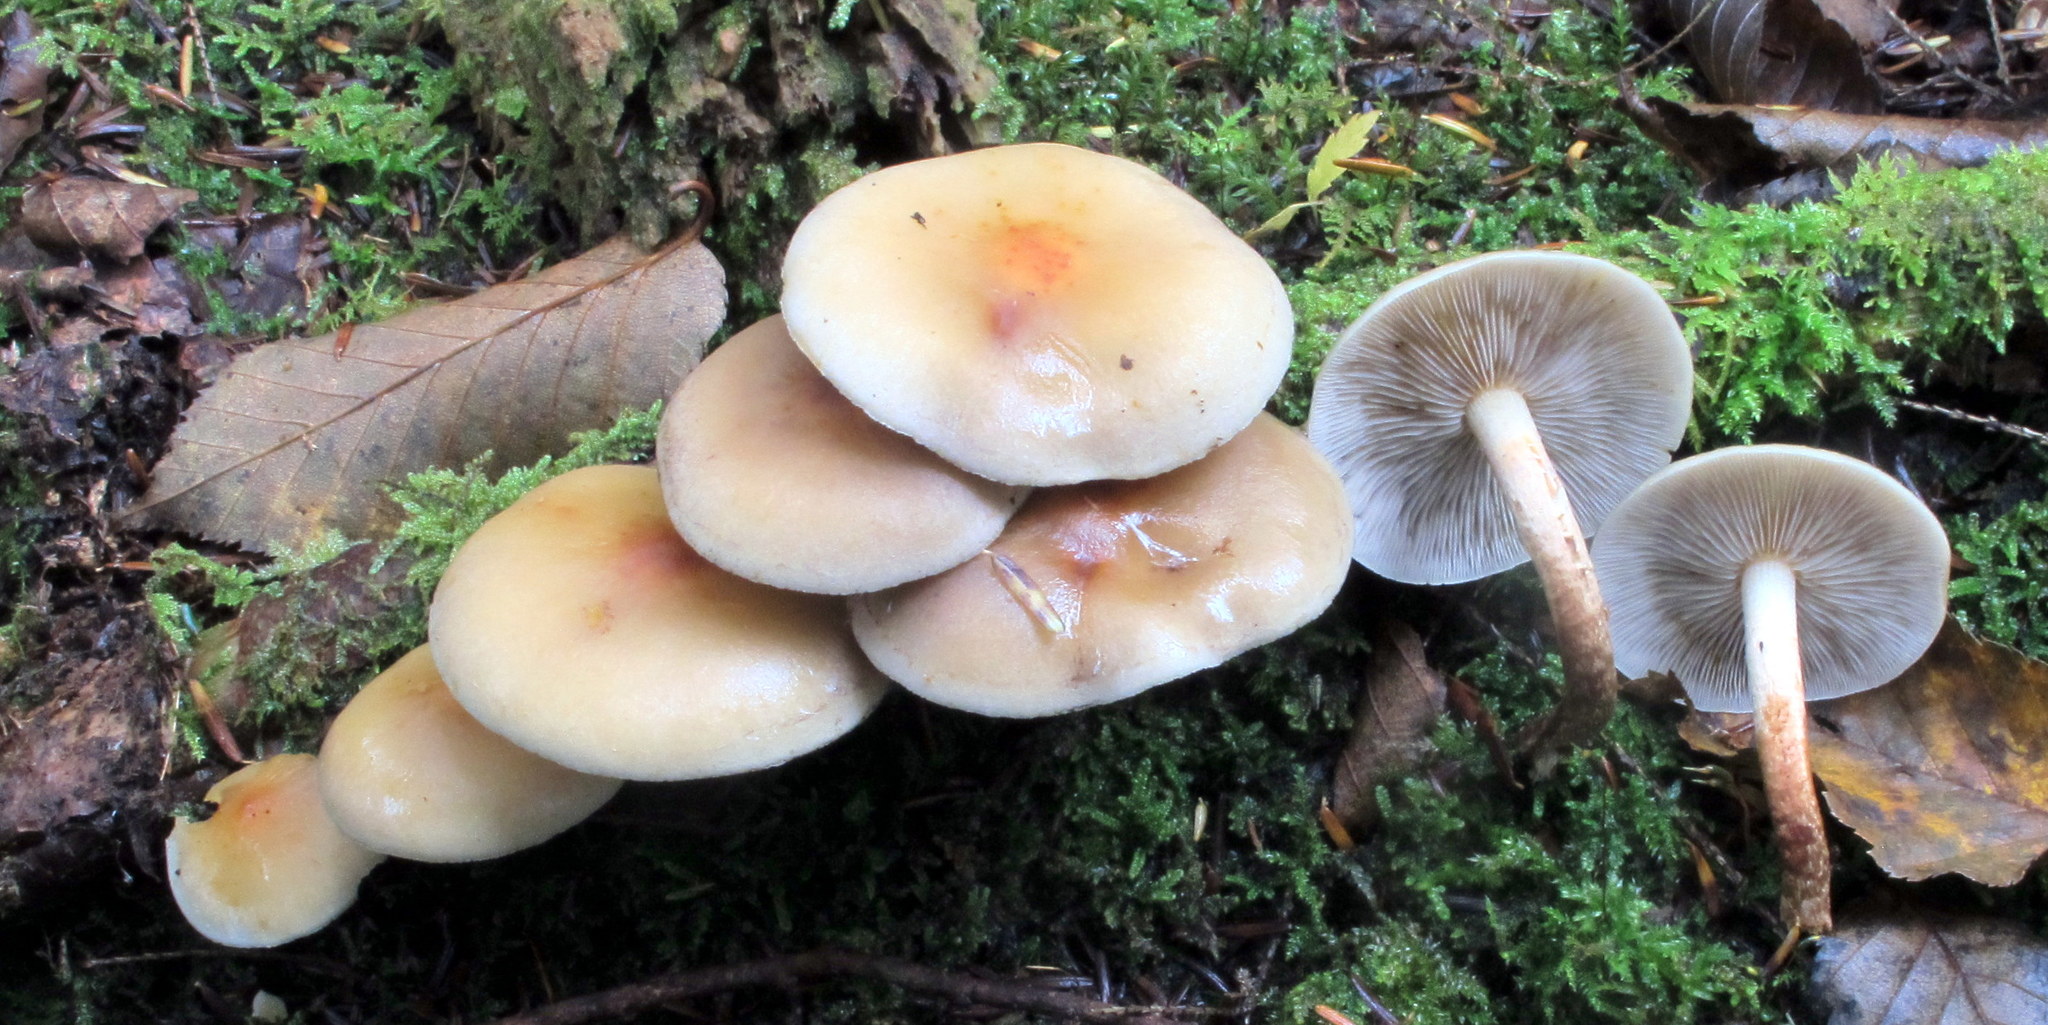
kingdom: Fungi
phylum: Basidiomycota
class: Agaricomycetes
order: Agaricales
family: Strophariaceae
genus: Hypholoma
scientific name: Hypholoma capnoides
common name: Conifer tuft
